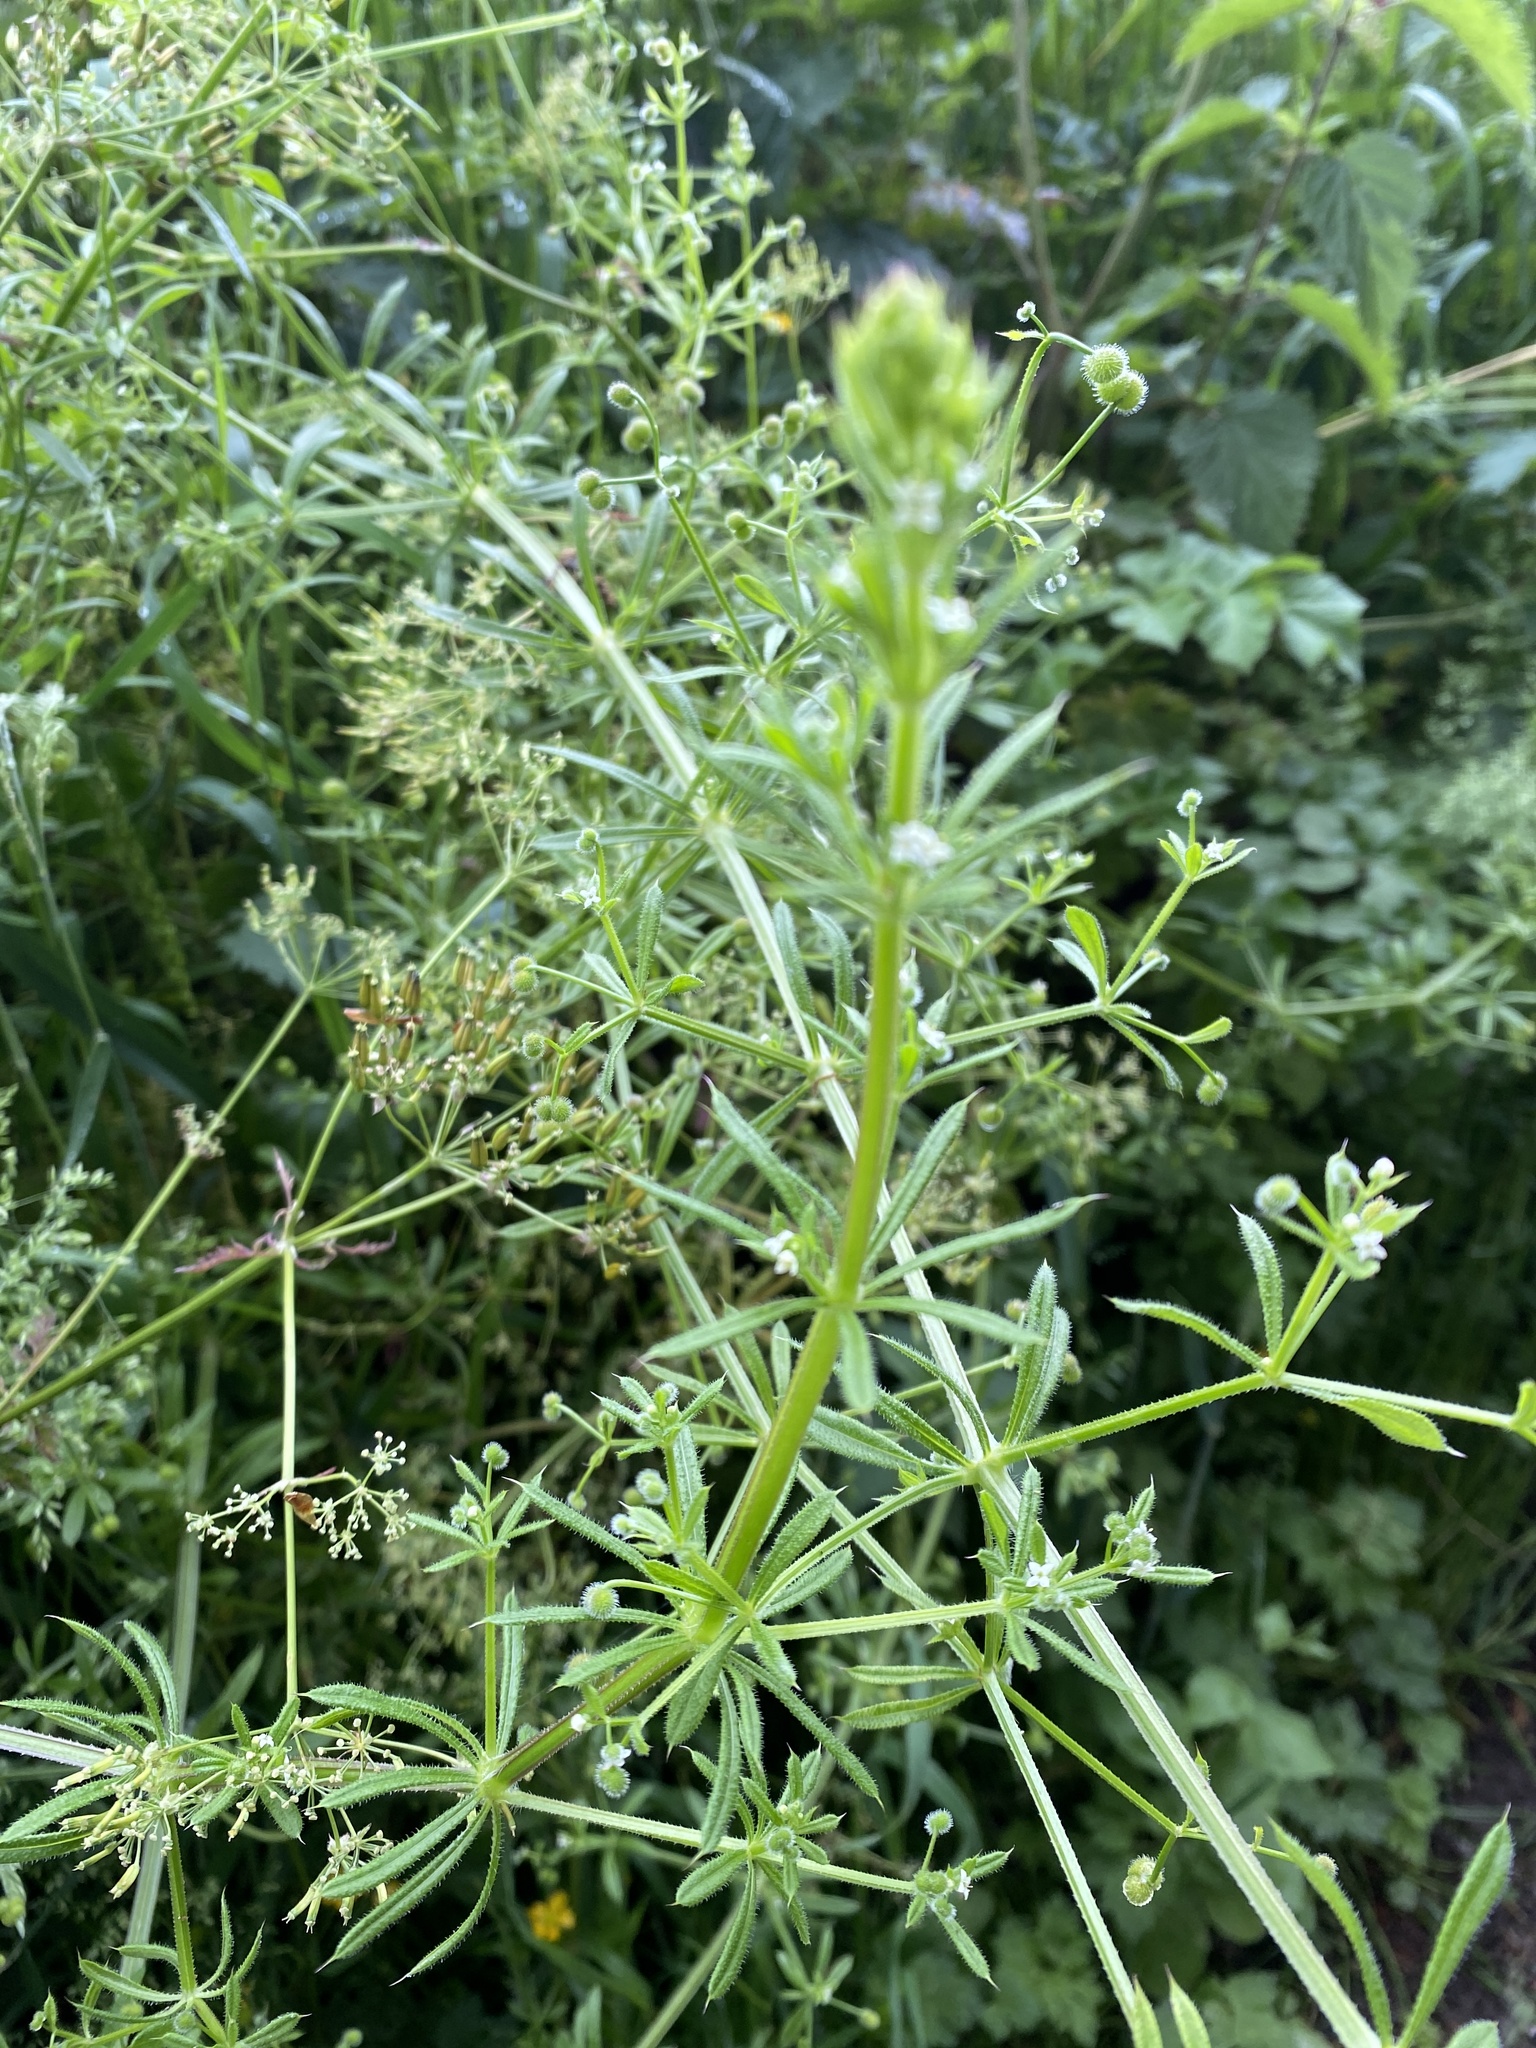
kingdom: Plantae
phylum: Tracheophyta
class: Magnoliopsida
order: Gentianales
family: Rubiaceae
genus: Galium
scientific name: Galium aparine
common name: Cleavers
